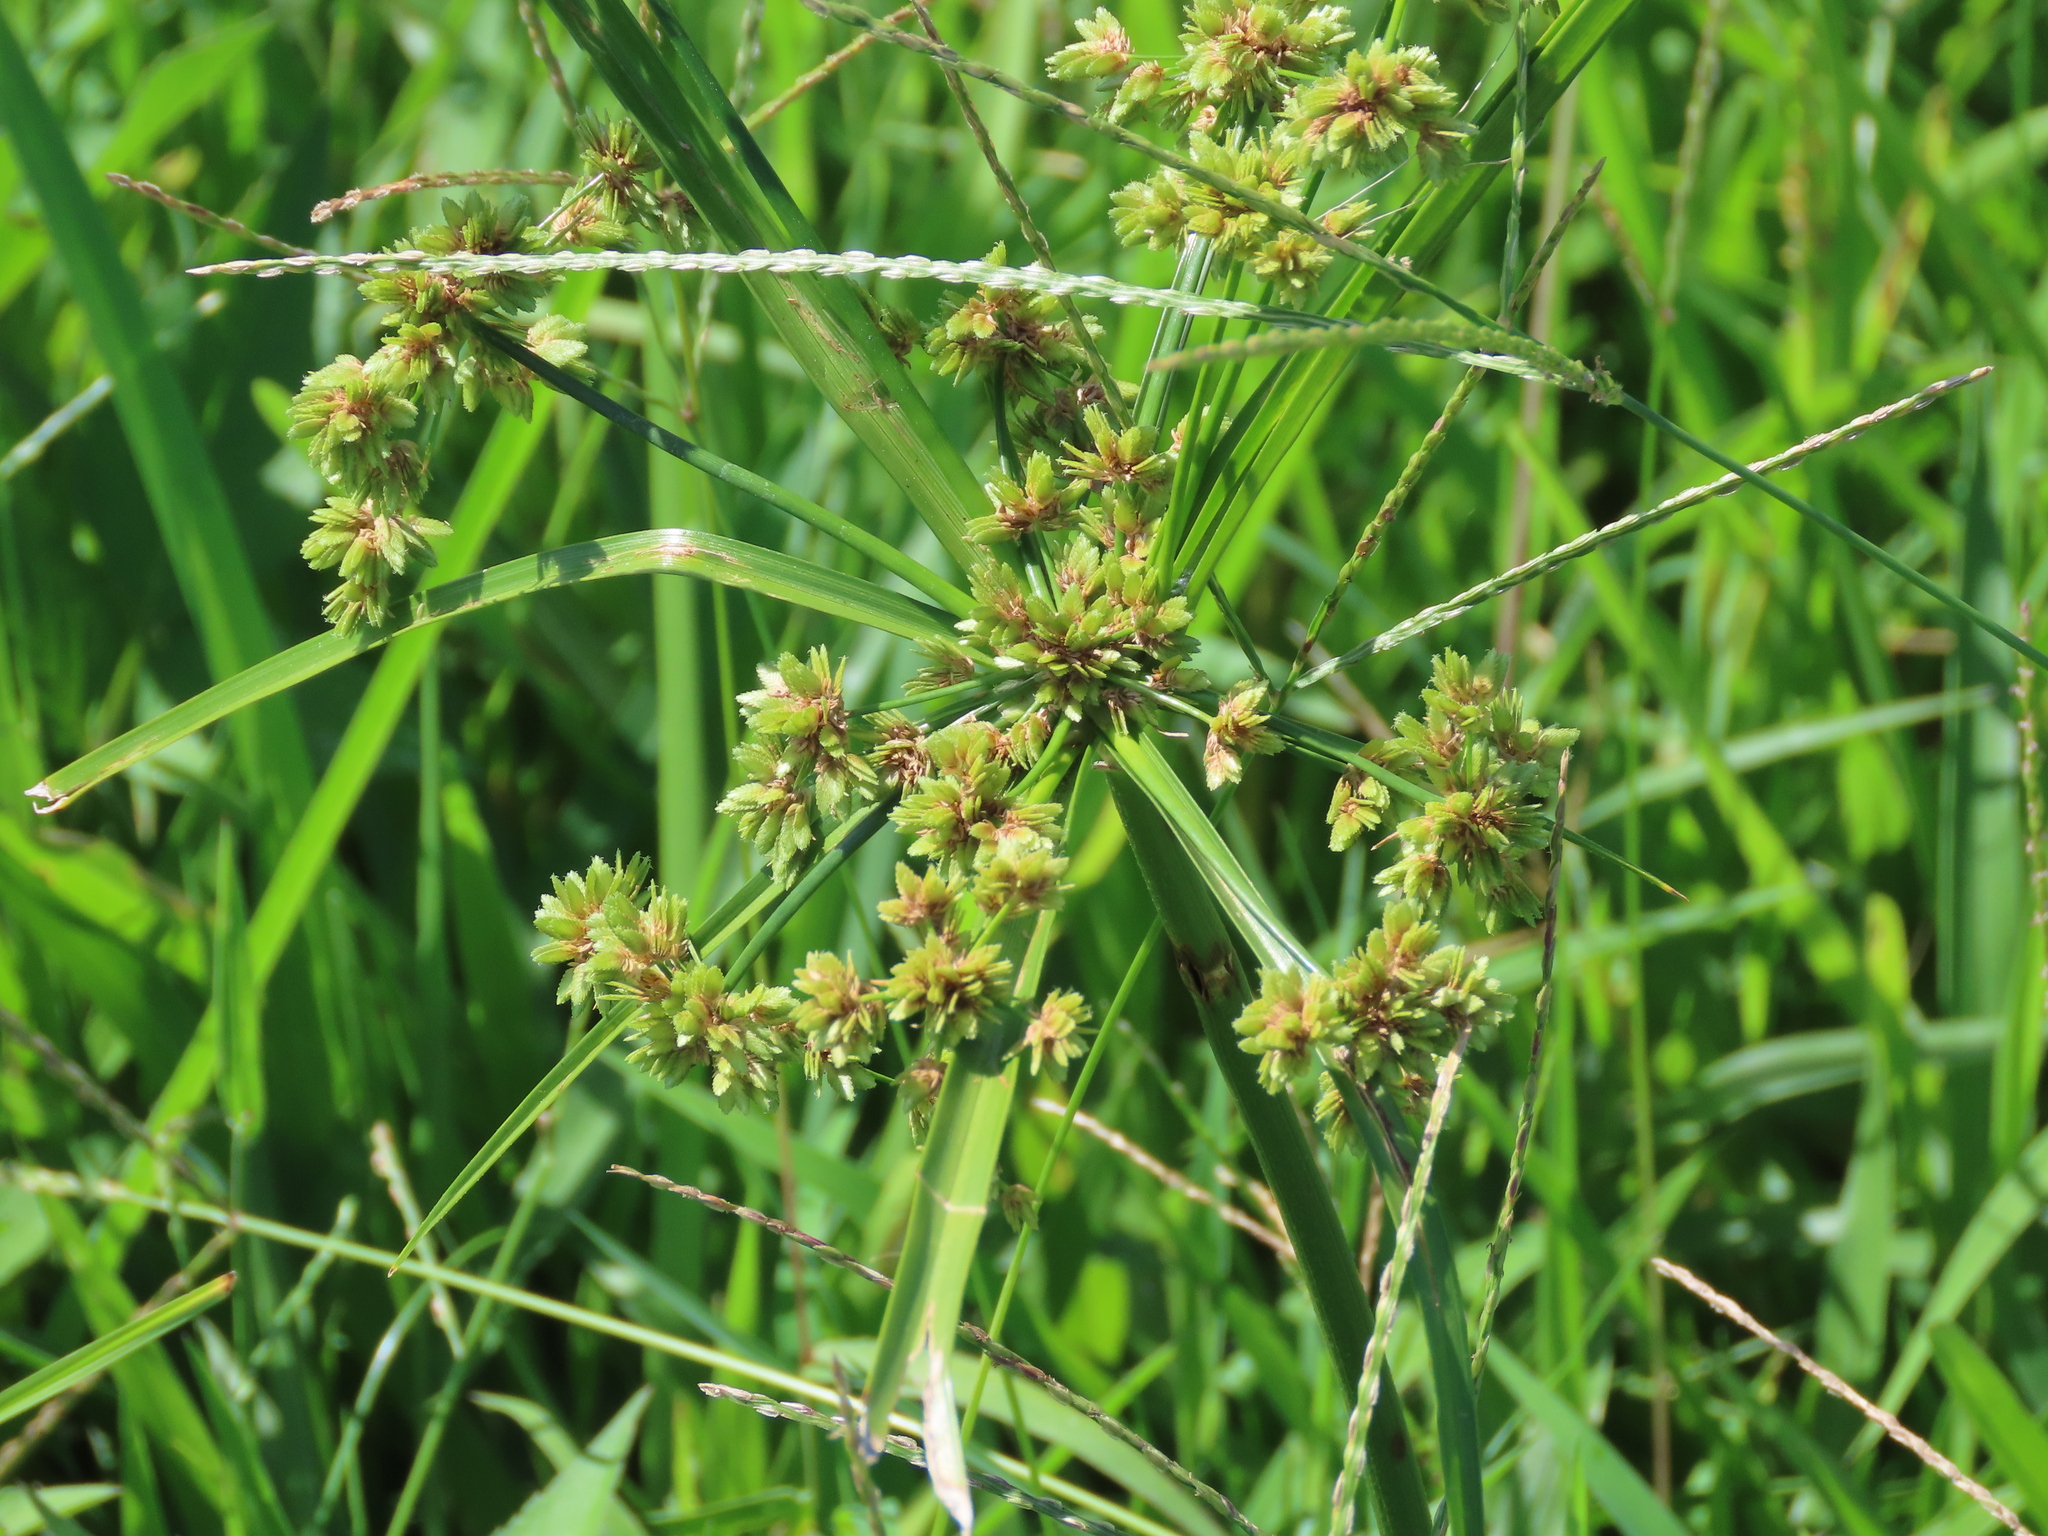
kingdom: Plantae
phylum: Tracheophyta
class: Liliopsida
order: Poales
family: Cyperaceae
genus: Cyperus
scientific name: Cyperus surinamensis
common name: Tropical flat sedge
